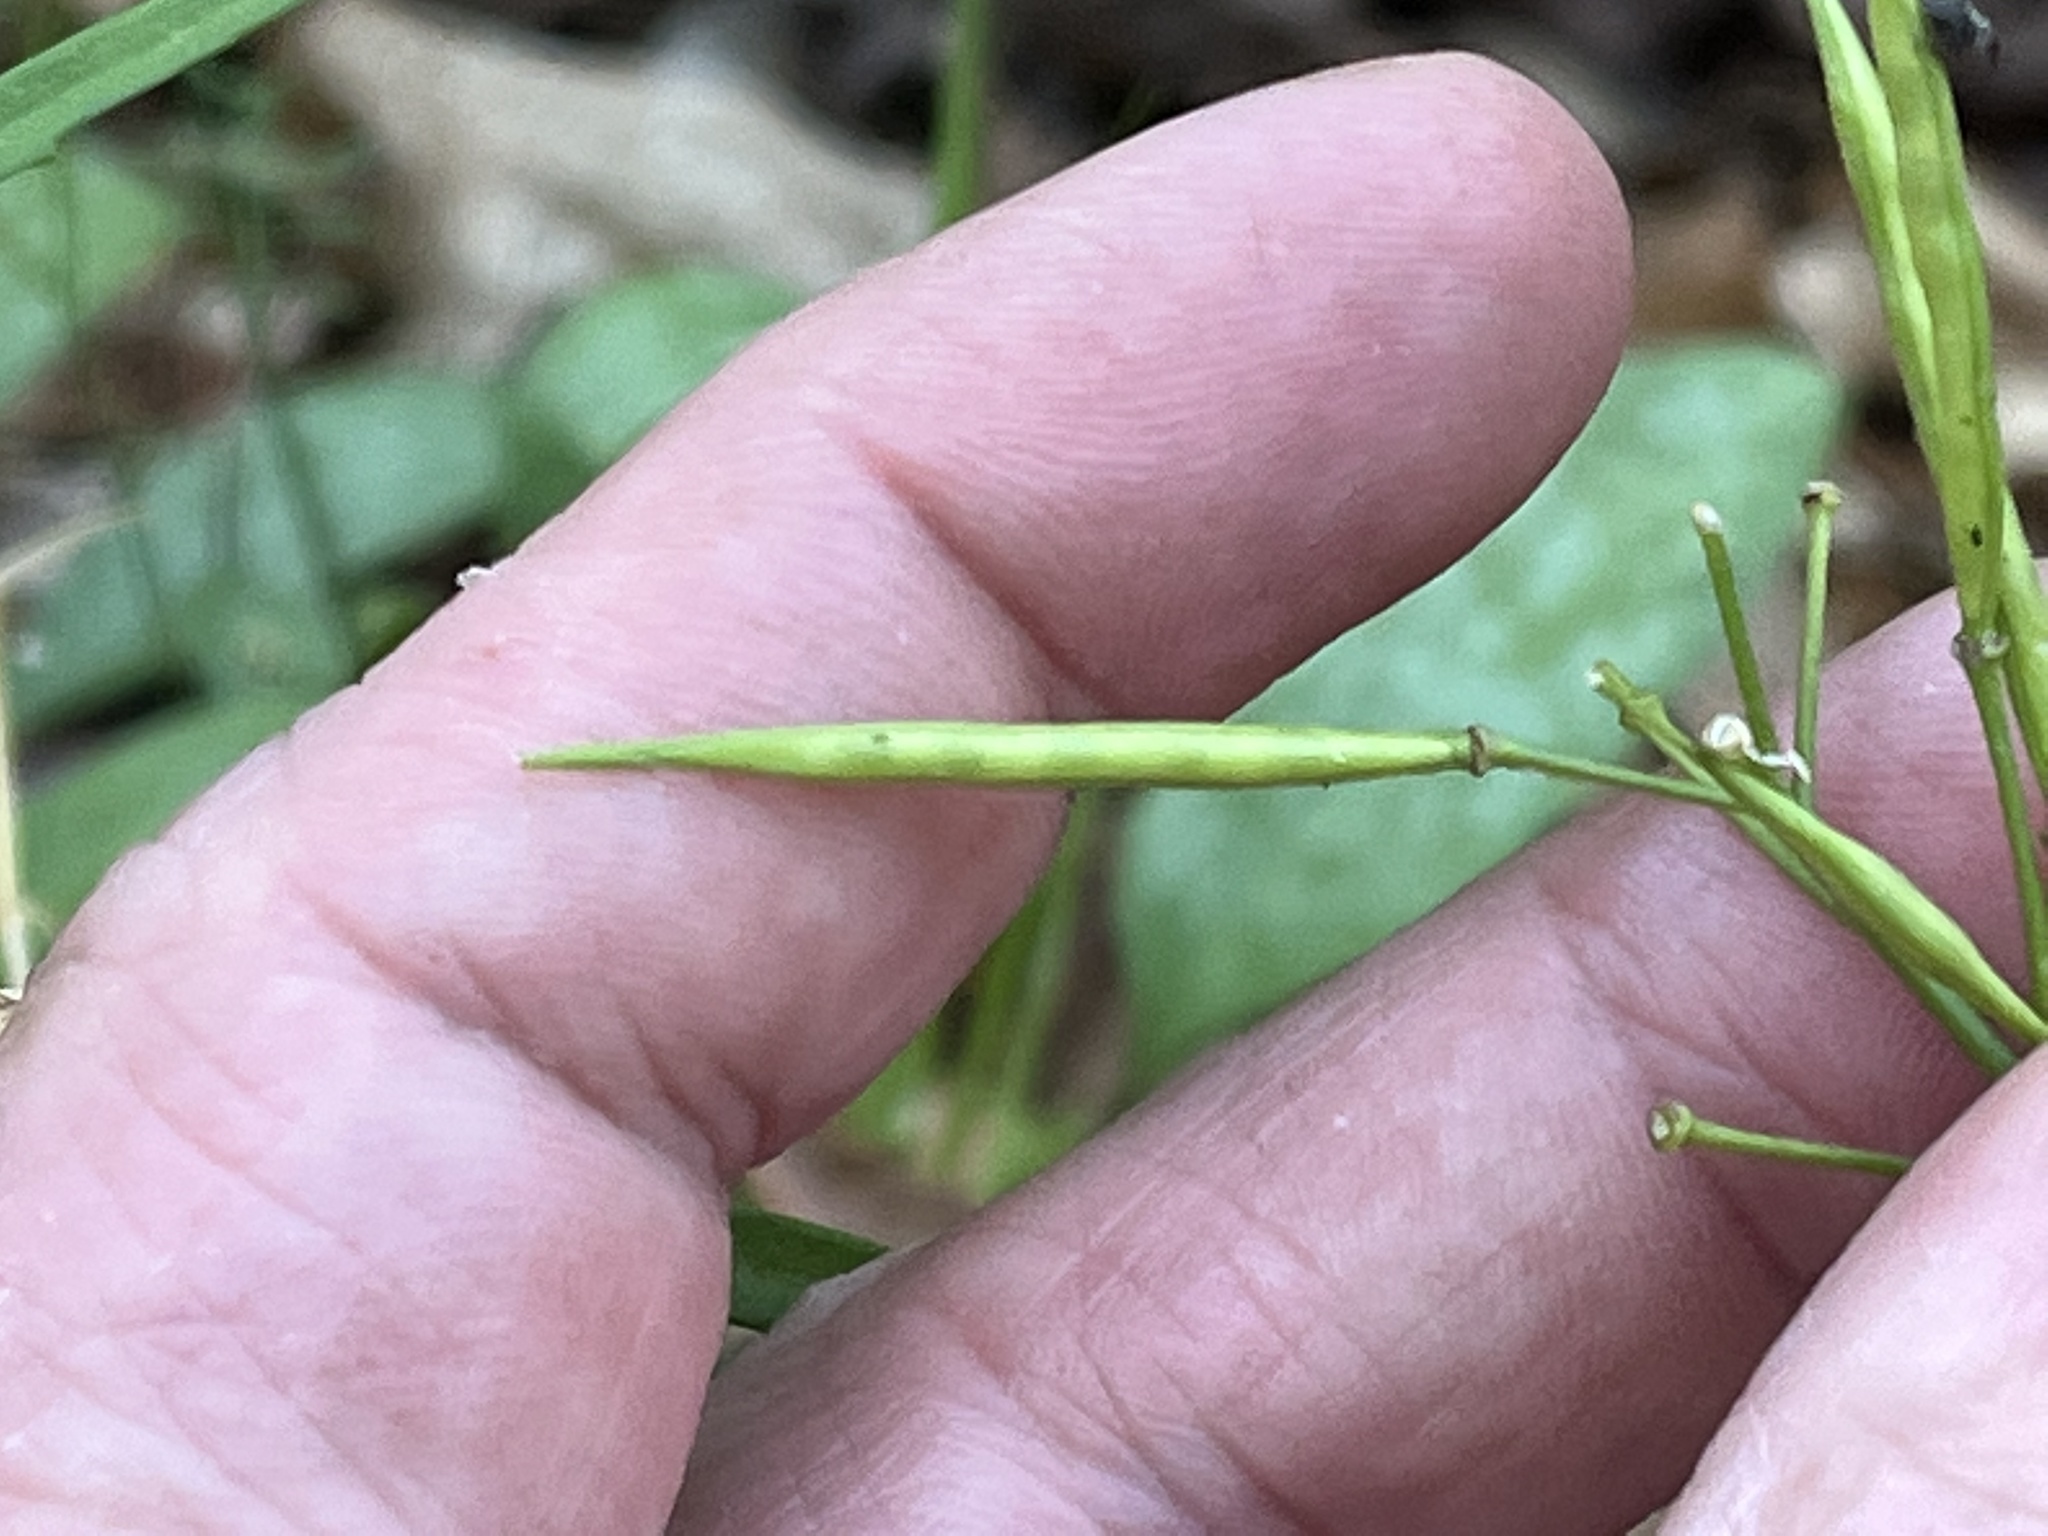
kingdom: Plantae
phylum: Tracheophyta
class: Magnoliopsida
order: Brassicales
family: Brassicaceae
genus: Cardamine
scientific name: Cardamine concatenata
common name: Cut-leaf toothcup
